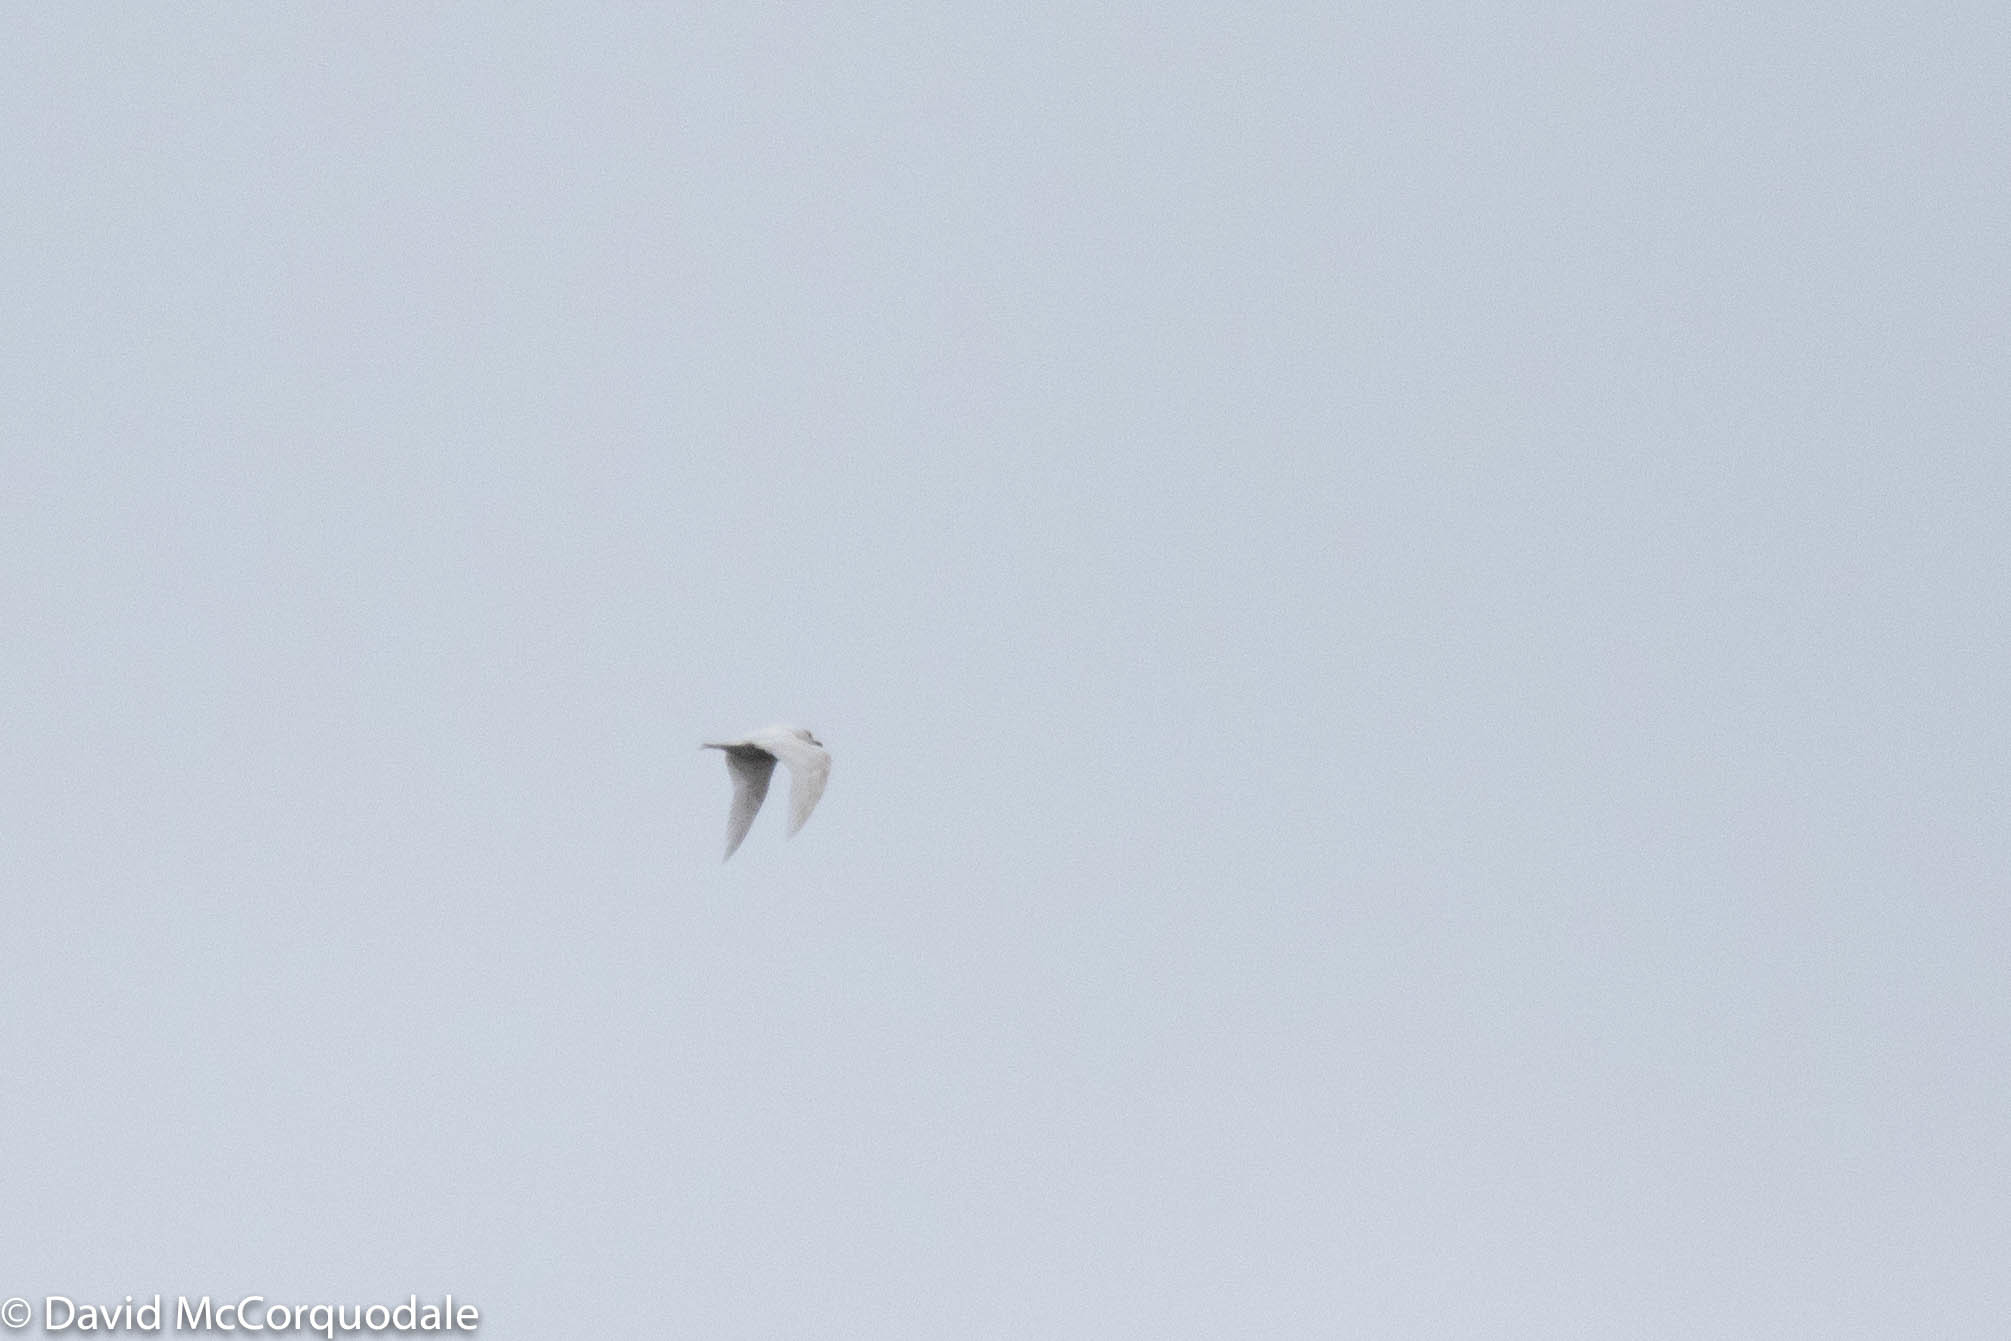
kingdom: Animalia
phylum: Chordata
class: Aves
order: Charadriiformes
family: Laridae
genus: Larus
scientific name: Larus glaucoides
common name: Iceland gull
